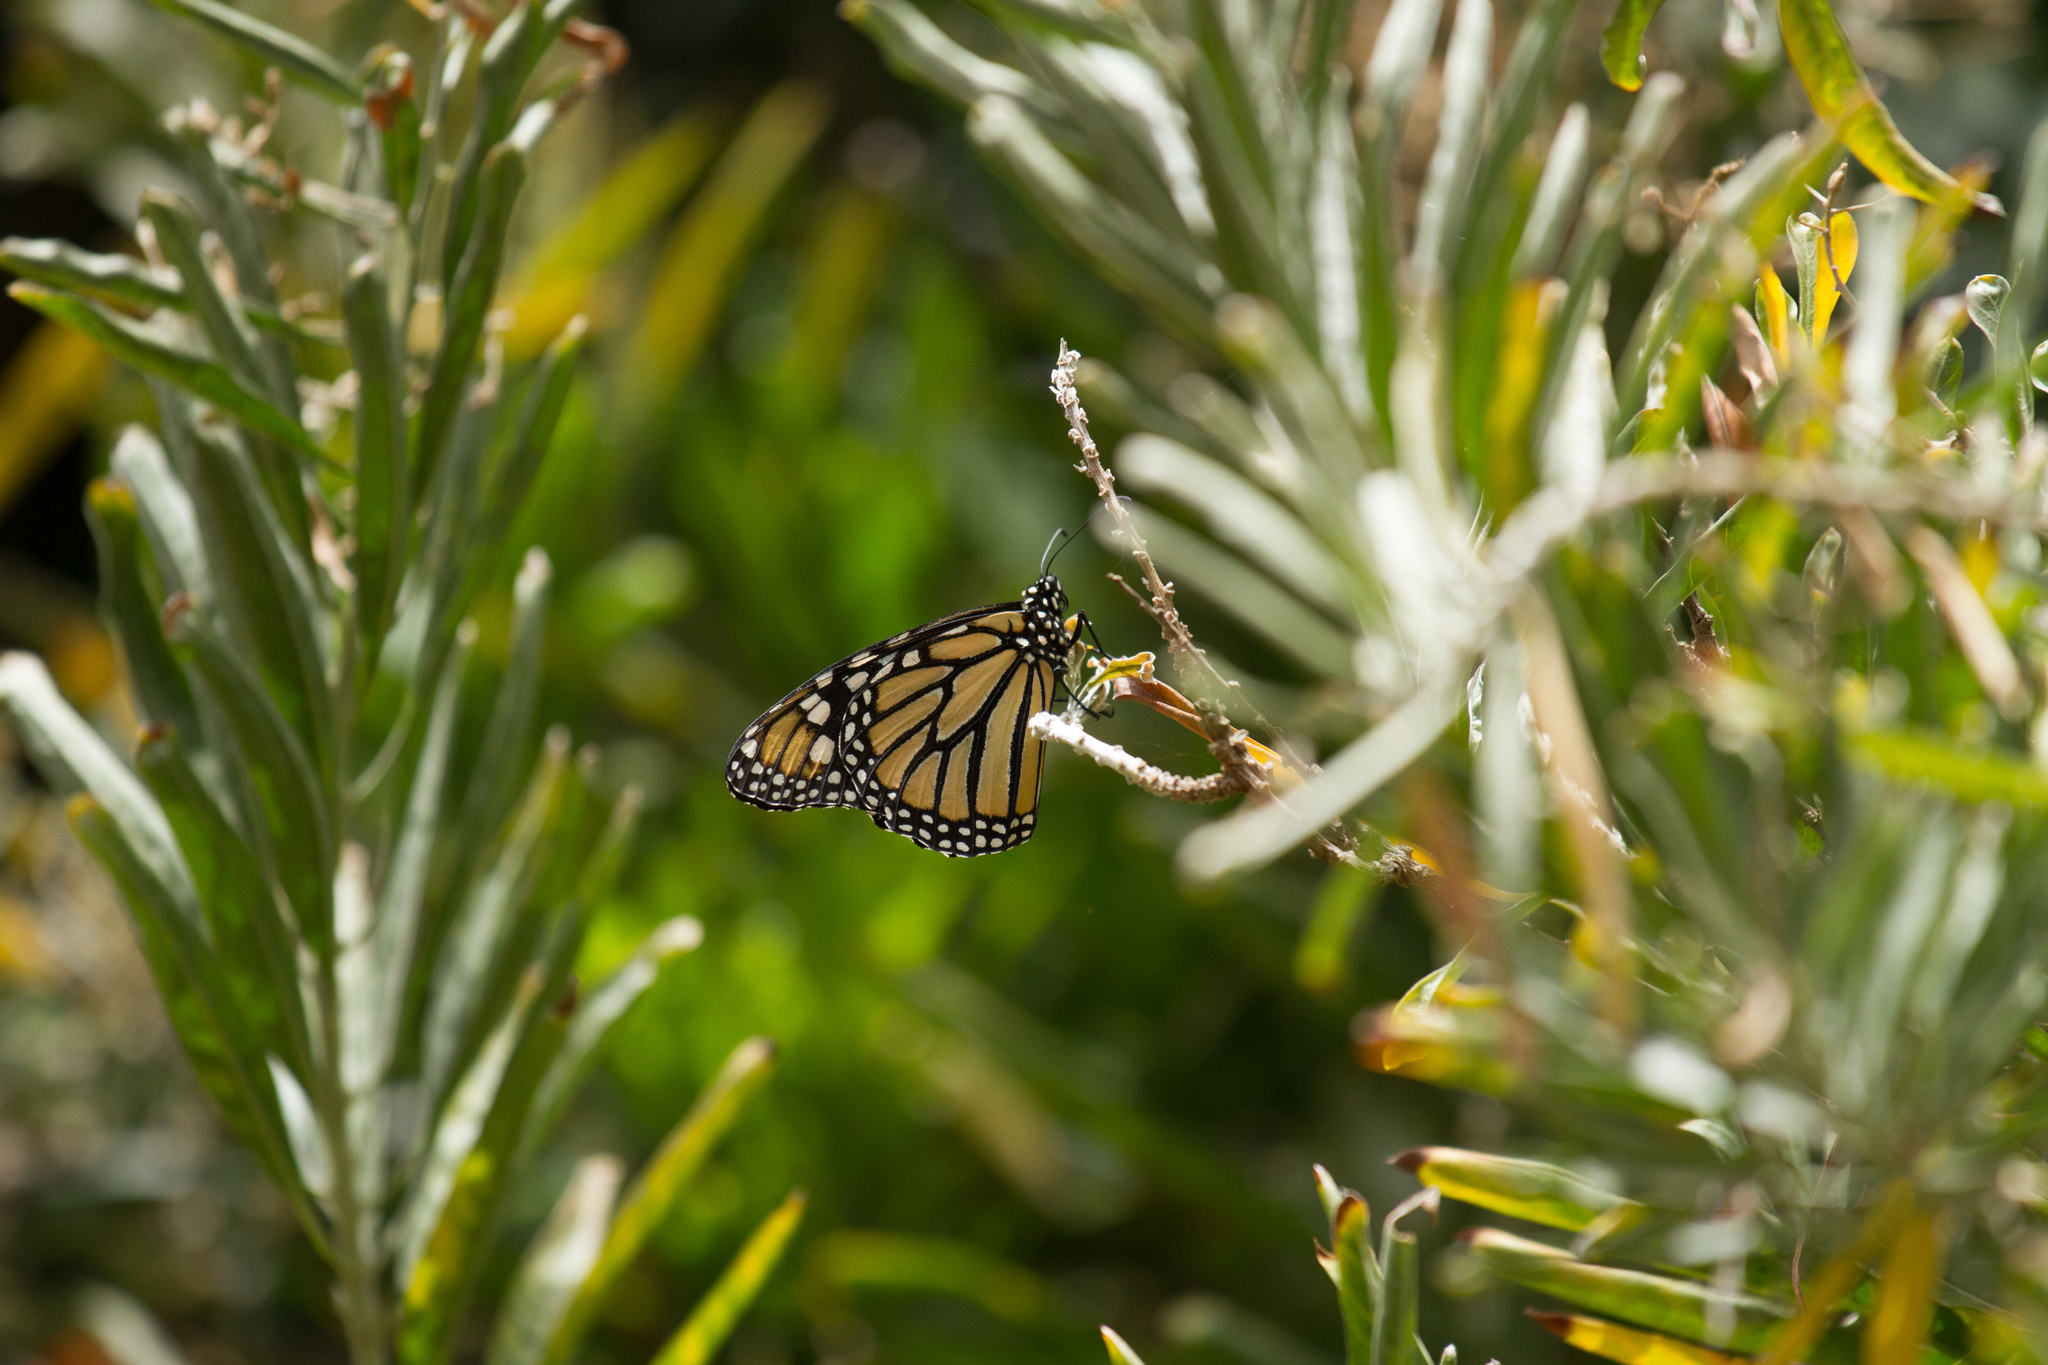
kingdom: Animalia
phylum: Arthropoda
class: Insecta
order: Lepidoptera
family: Nymphalidae
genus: Danaus
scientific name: Danaus plexippus
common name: Monarch
